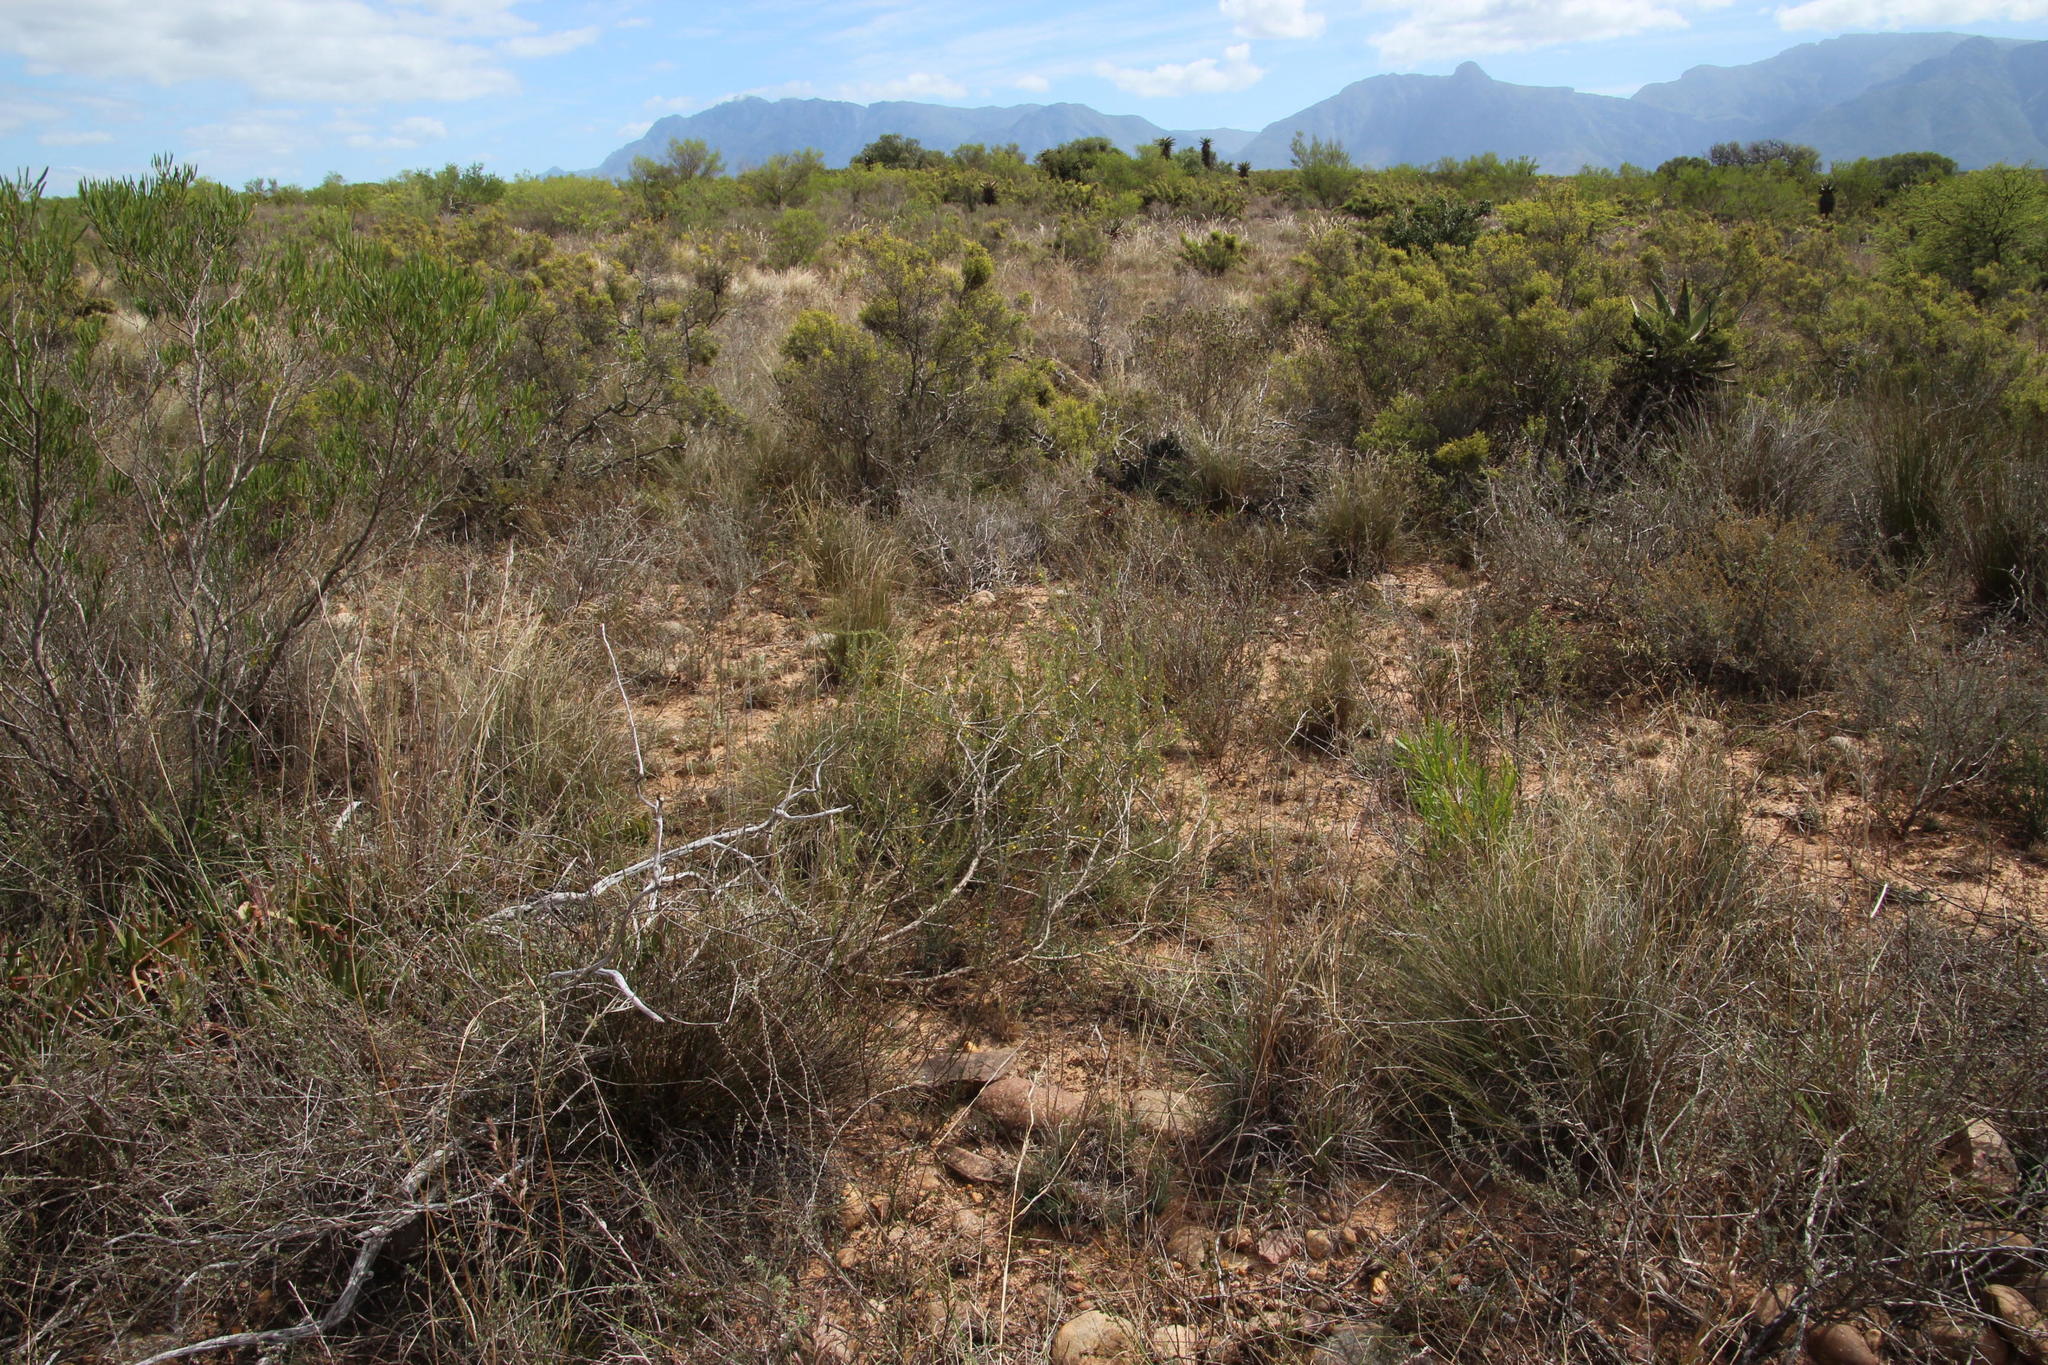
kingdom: Plantae
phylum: Tracheophyta
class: Magnoliopsida
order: Fabales
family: Fabaceae
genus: Aspalathus
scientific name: Aspalathus spinosa
